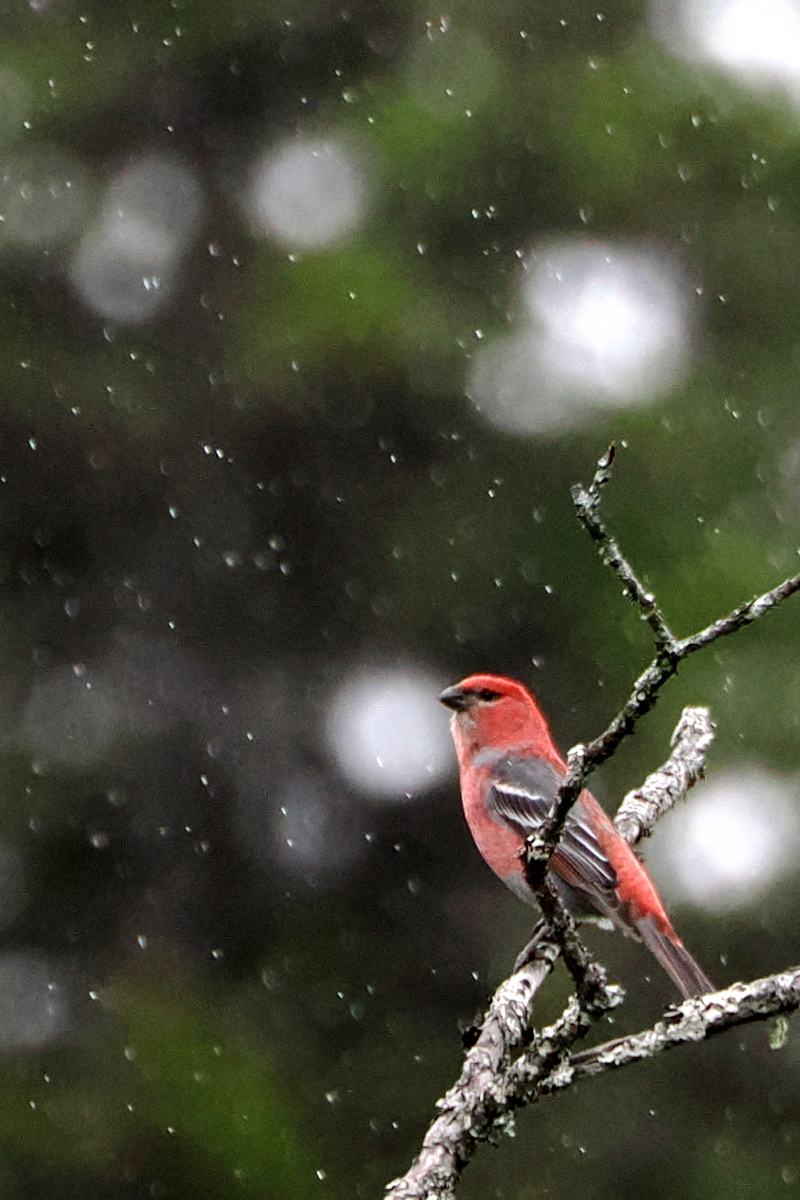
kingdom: Animalia
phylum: Chordata
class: Aves
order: Passeriformes
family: Fringillidae
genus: Pinicola
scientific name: Pinicola enucleator
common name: Pine grosbeak
